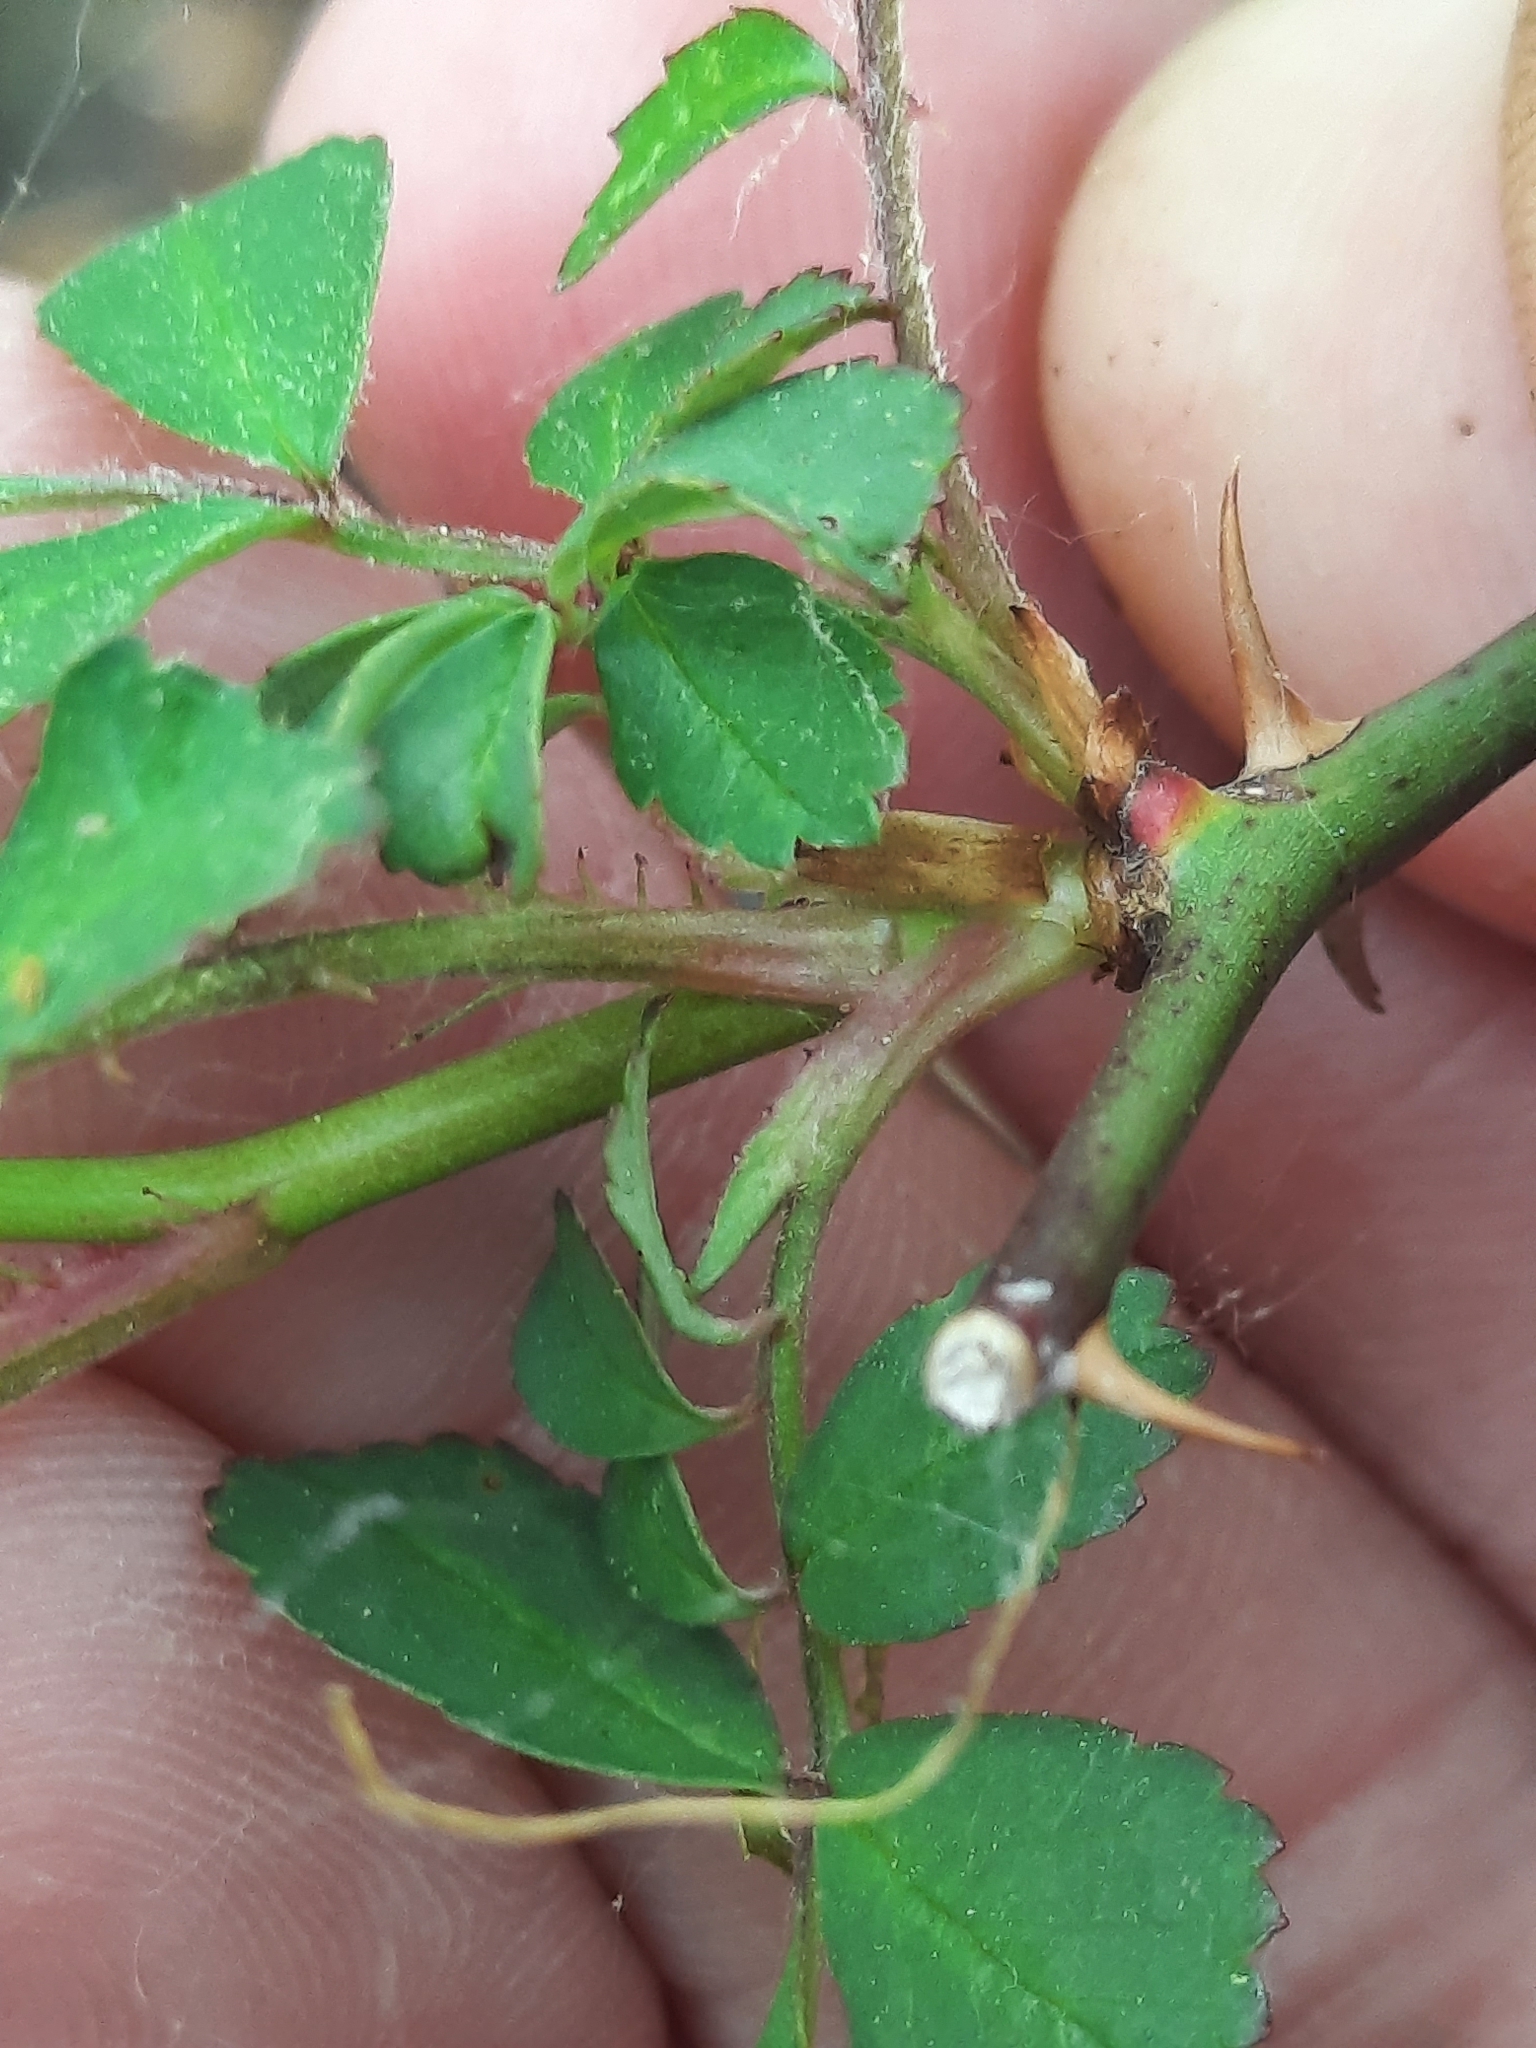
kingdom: Plantae
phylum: Tracheophyta
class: Magnoliopsida
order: Rosales
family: Rosaceae
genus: Rosa
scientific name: Rosa multiflora
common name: Multiflora rose
